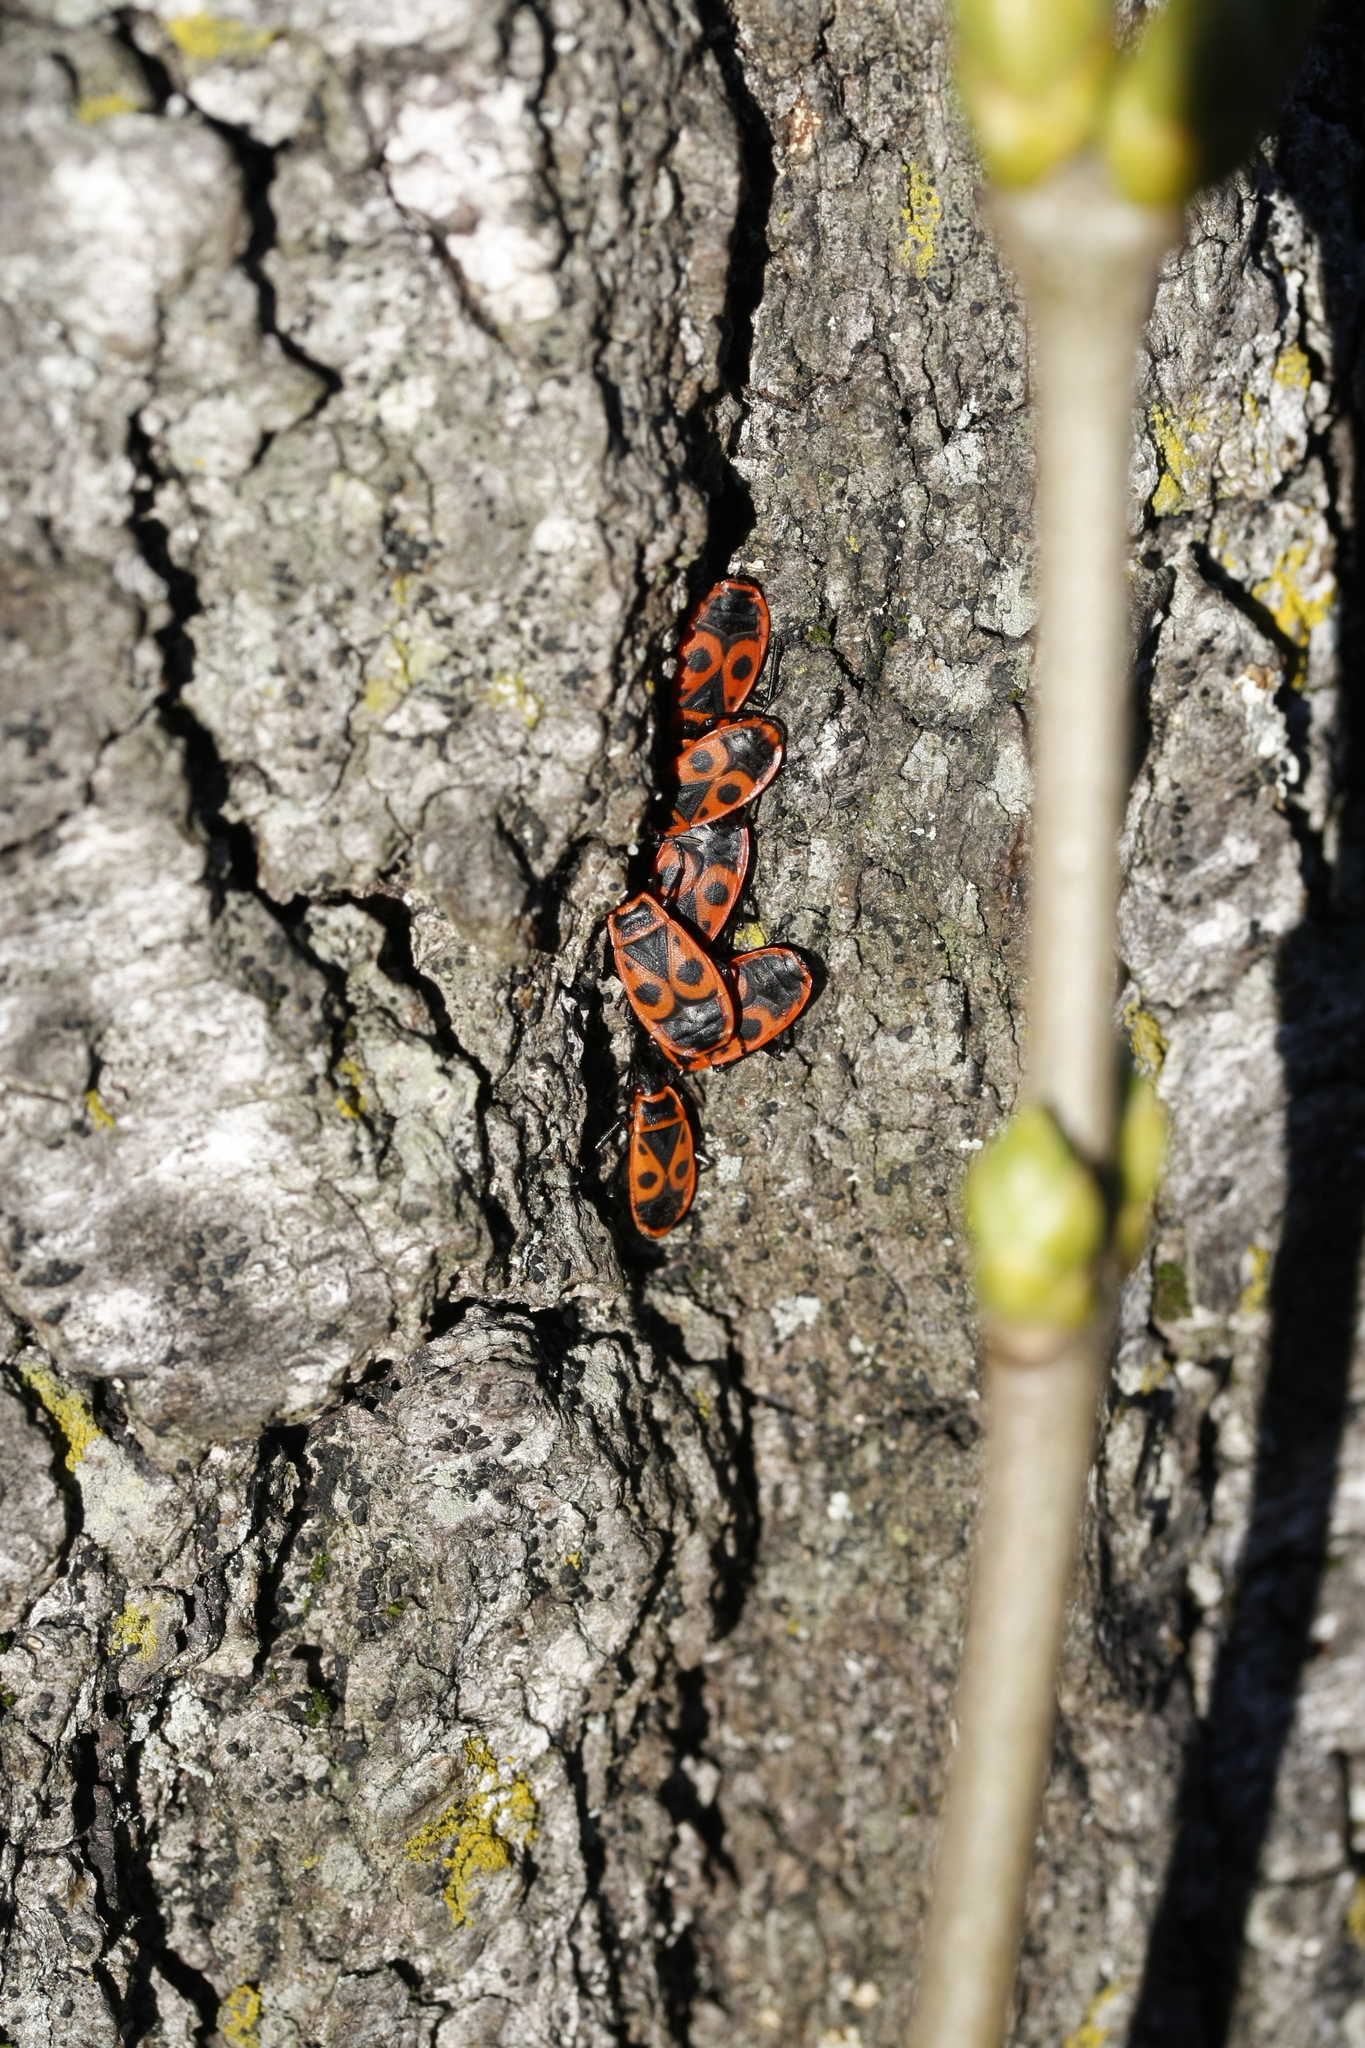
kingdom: Animalia
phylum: Arthropoda
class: Insecta
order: Hemiptera
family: Pyrrhocoridae
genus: Pyrrhocoris
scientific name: Pyrrhocoris apterus
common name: Firebug
